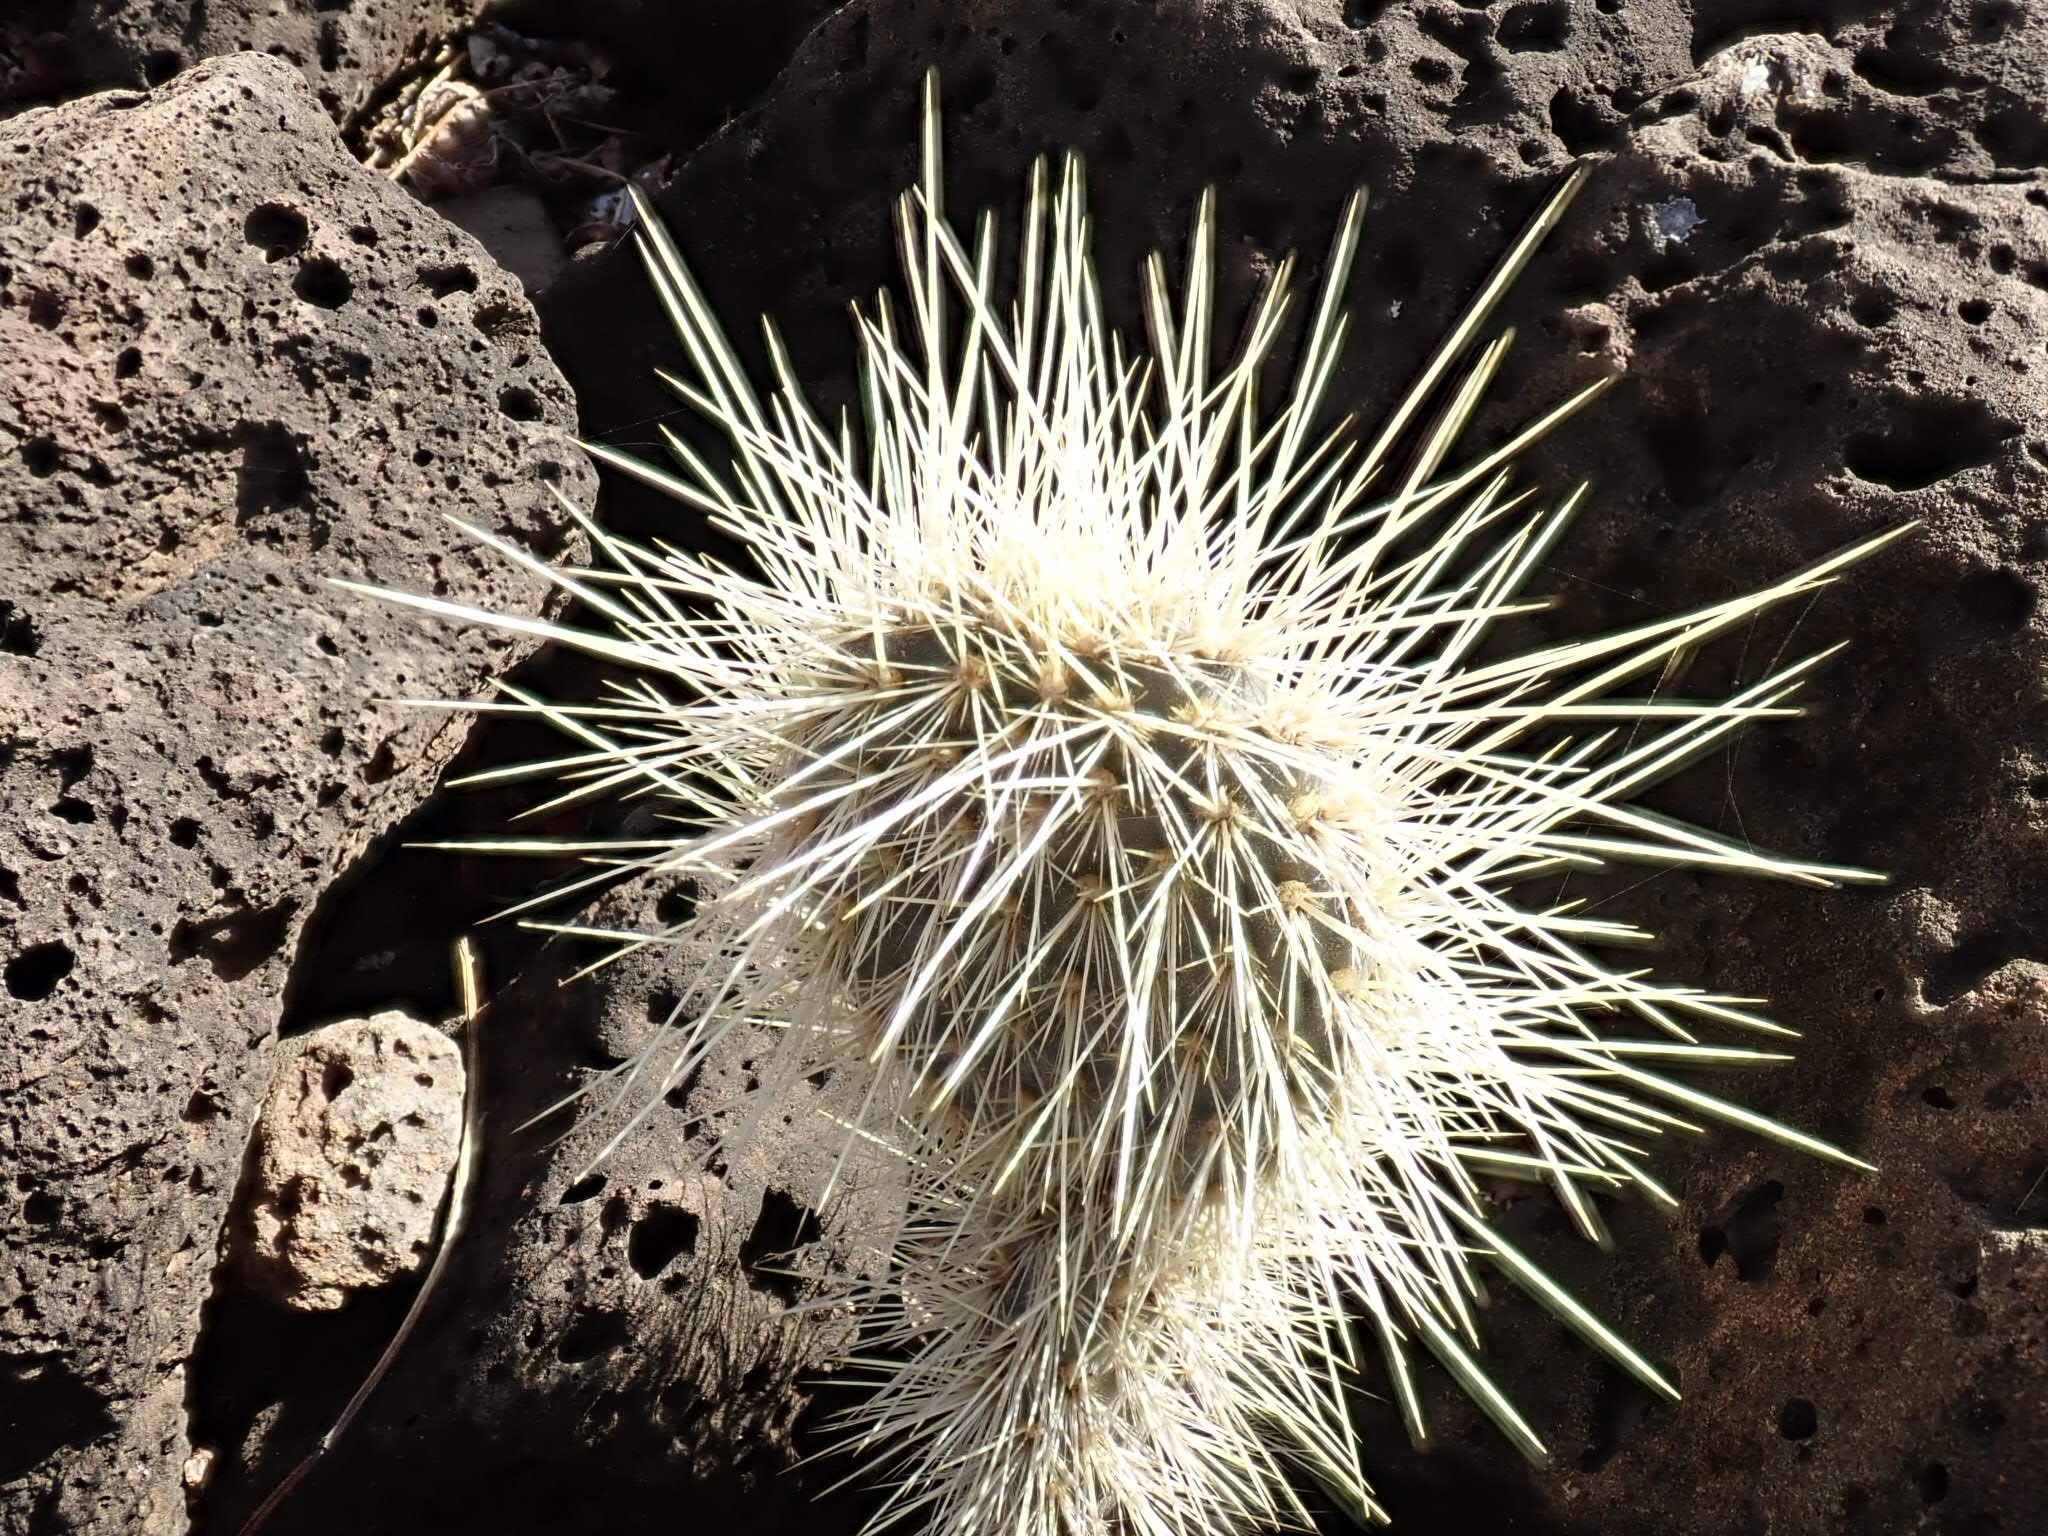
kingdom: Plantae
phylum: Tracheophyta
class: Magnoliopsida
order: Caryophyllales
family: Cactaceae
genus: Opuntia
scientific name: Opuntia galapageia
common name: Galápagos prickly pear
